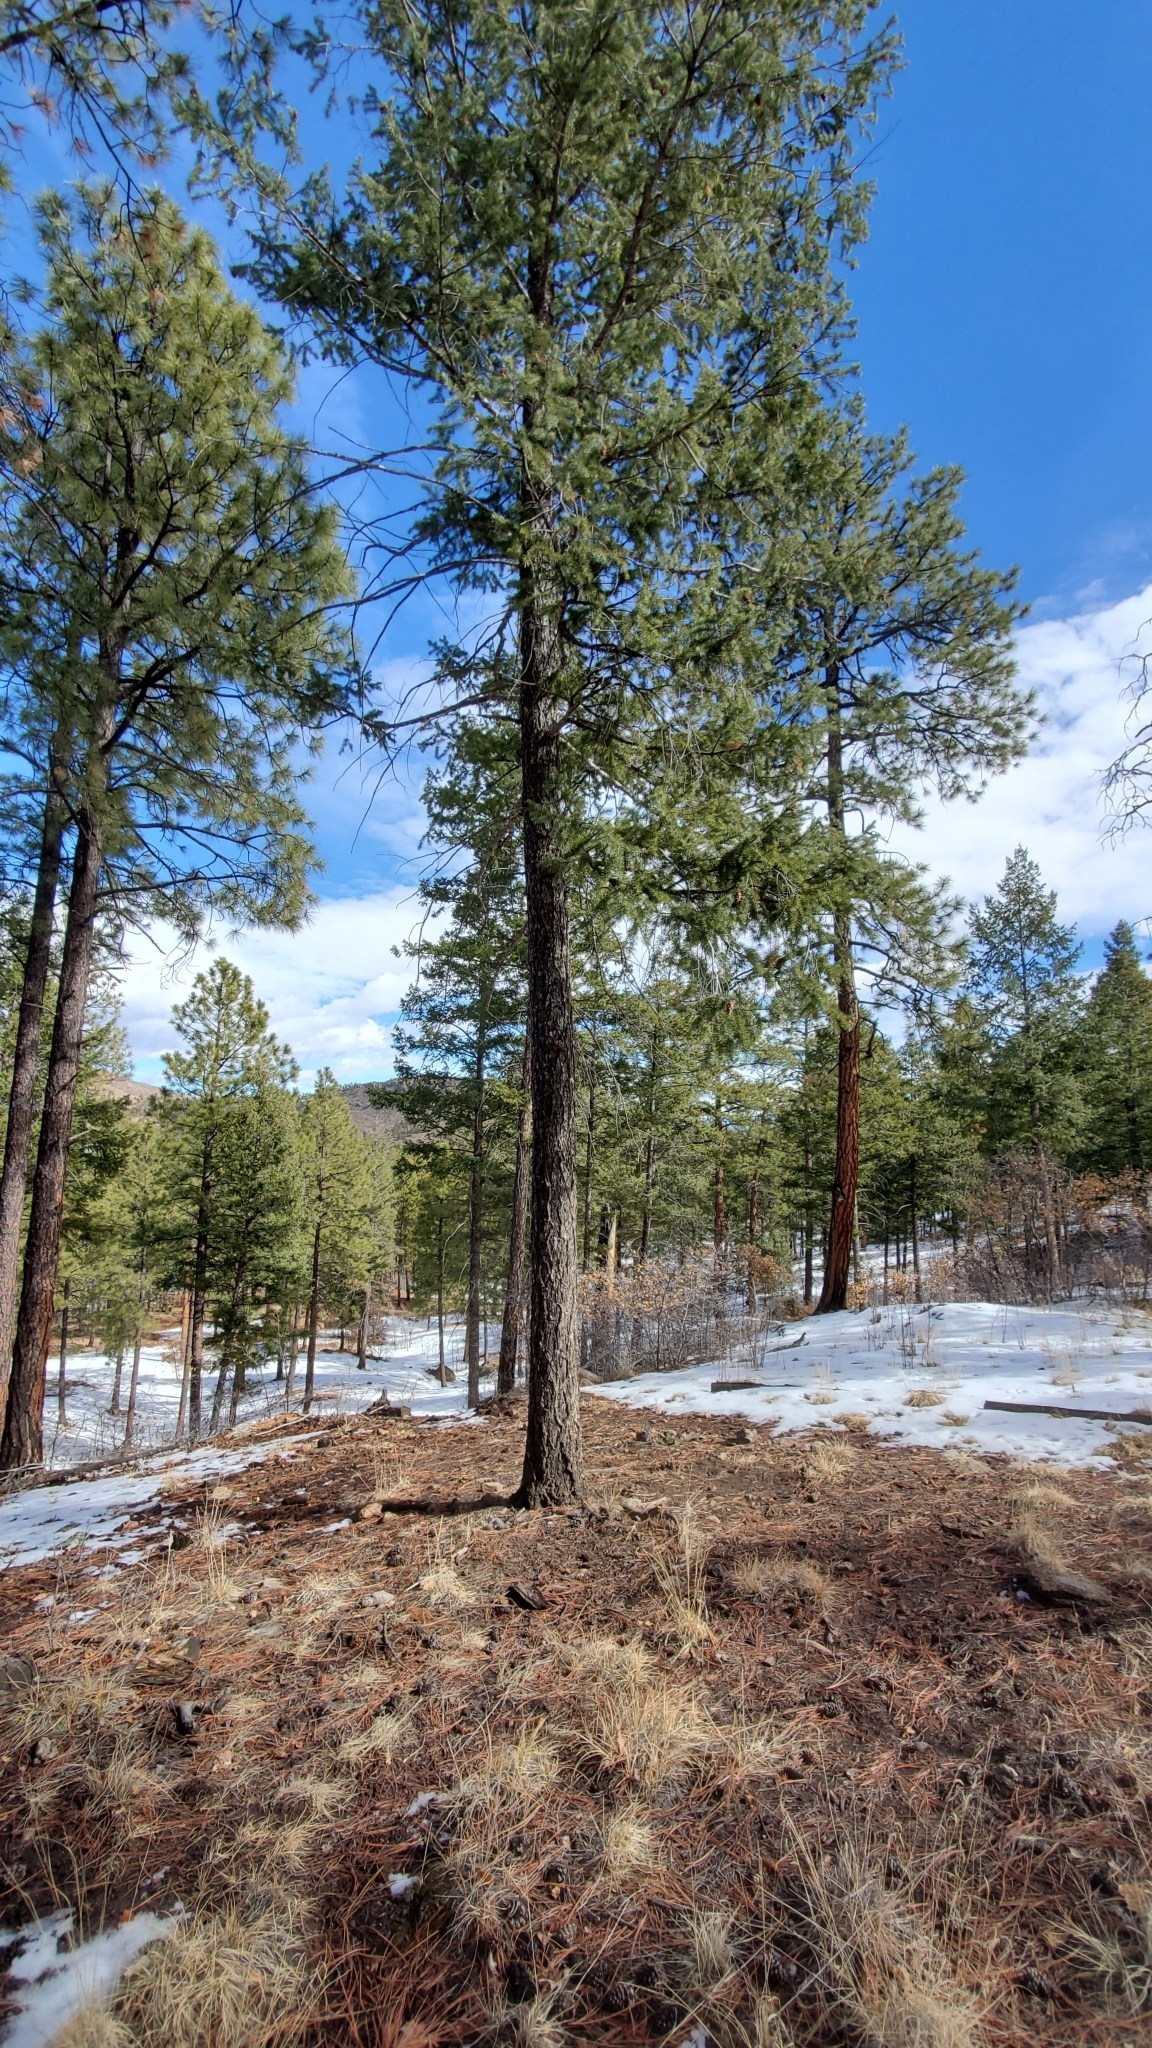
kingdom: Plantae
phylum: Tracheophyta
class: Pinopsida
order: Pinales
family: Pinaceae
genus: Pseudotsuga
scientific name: Pseudotsuga menziesii
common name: Douglas fir
